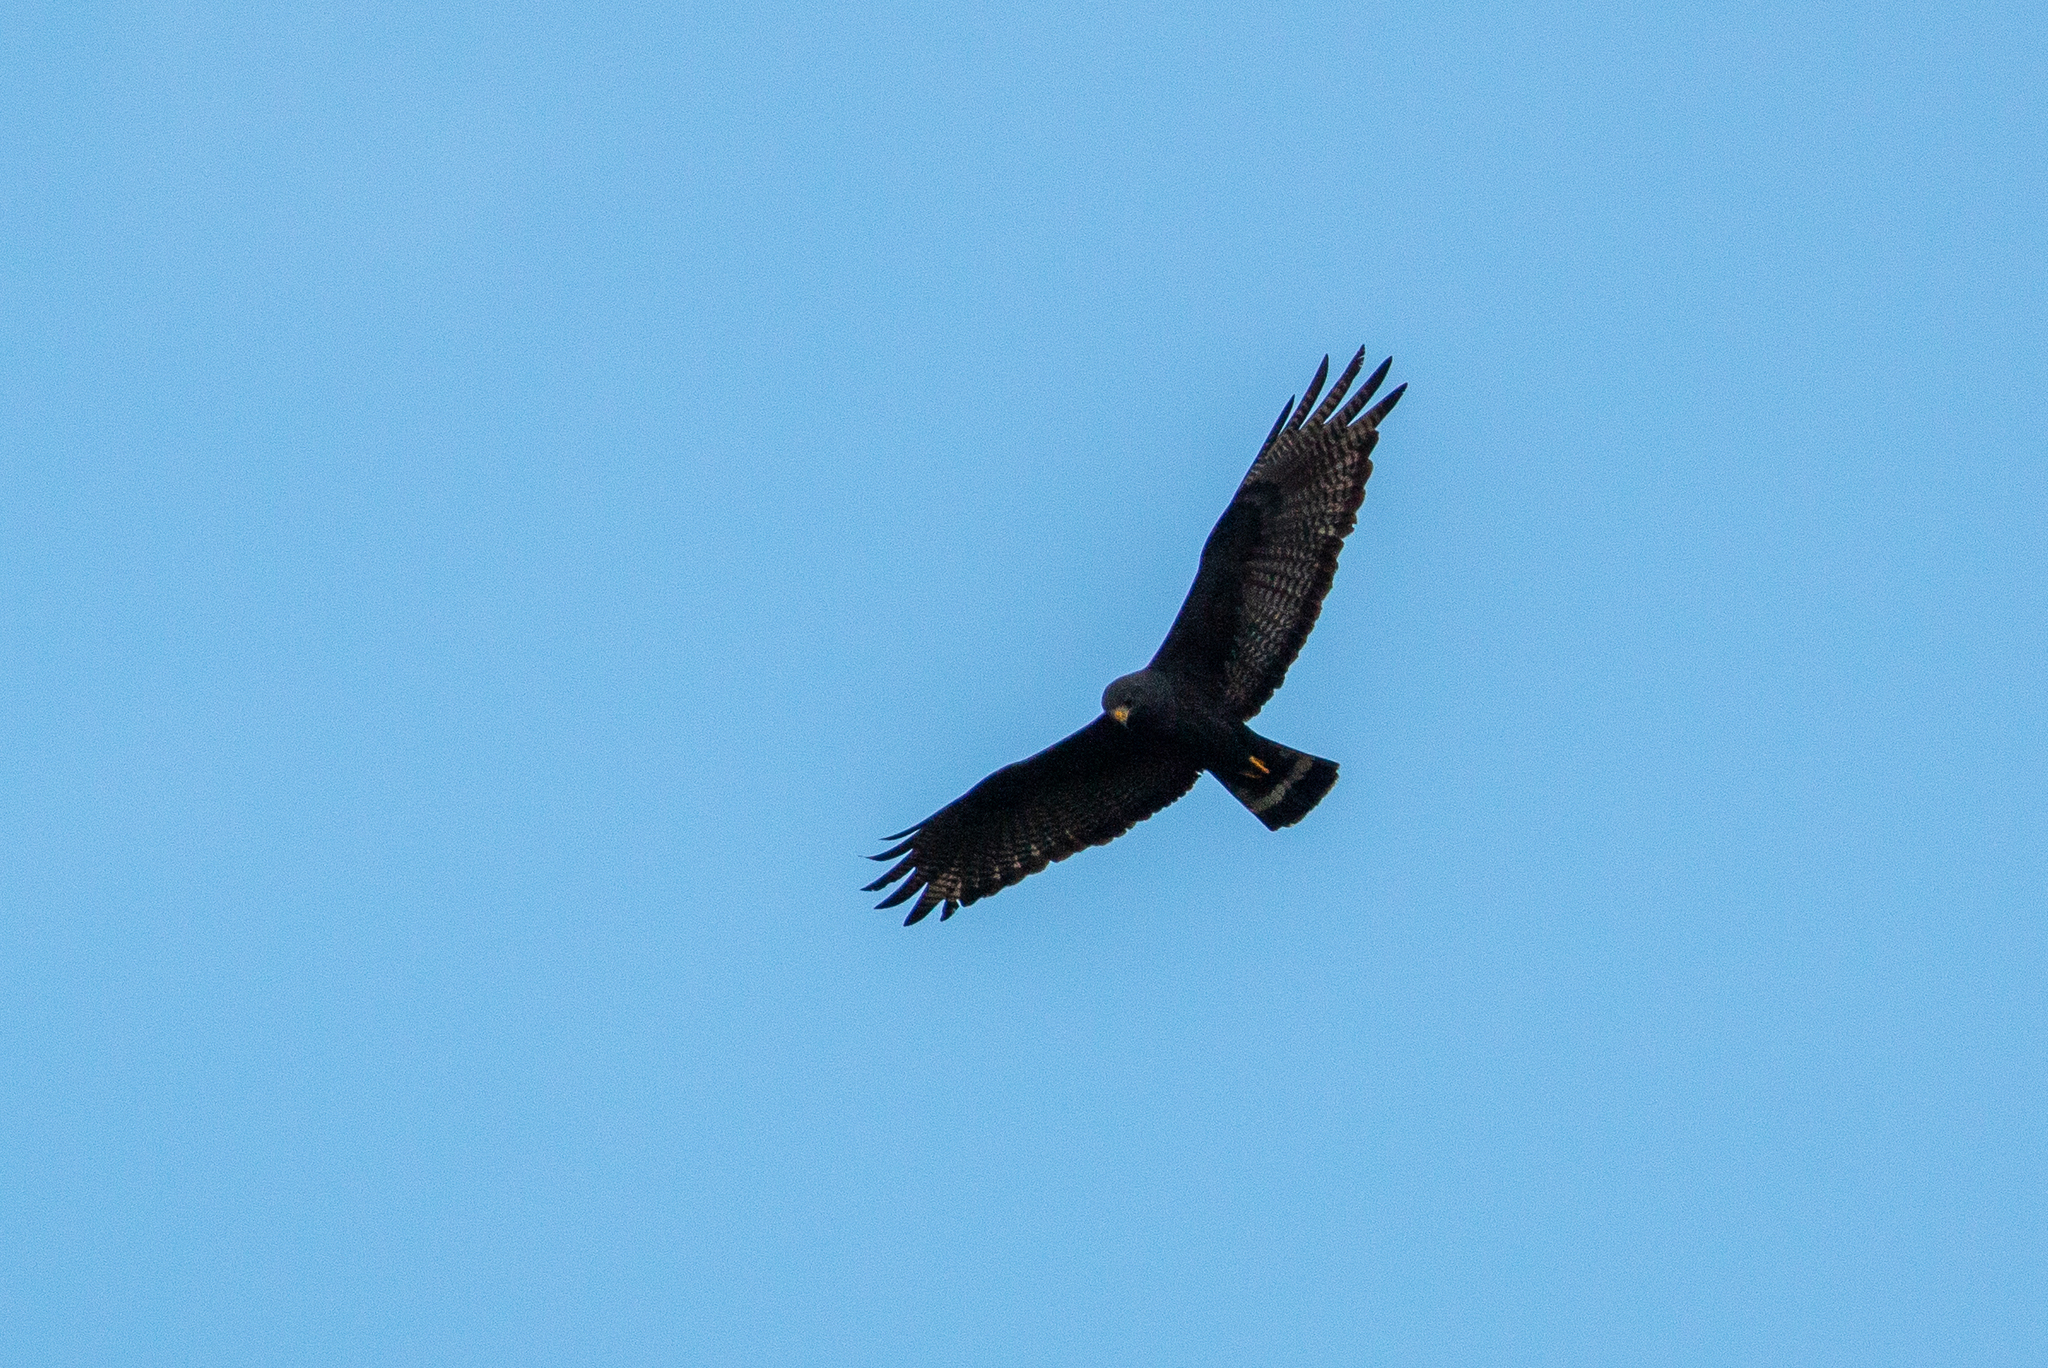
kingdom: Animalia
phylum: Chordata
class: Aves
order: Accipitriformes
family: Accipitridae
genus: Buteo
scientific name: Buteo albonotatus
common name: Zone-tailed hawk
